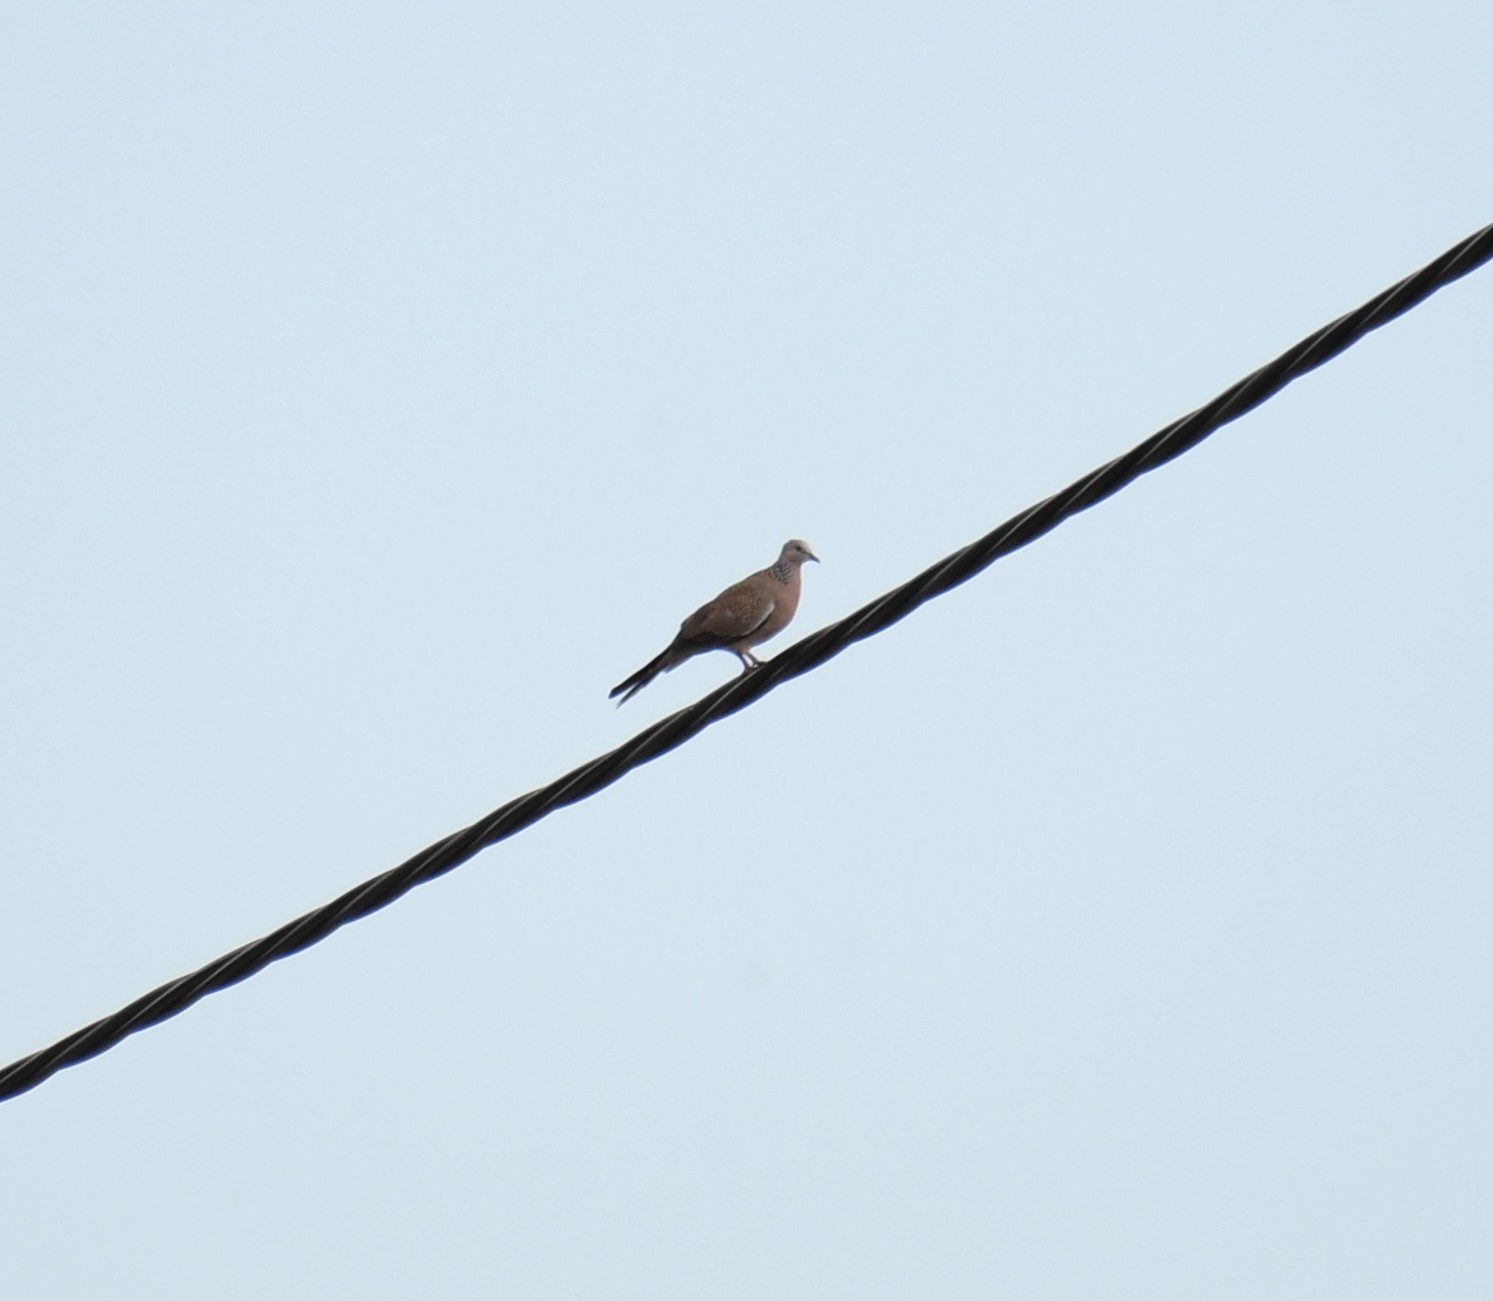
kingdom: Animalia
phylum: Chordata
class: Aves
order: Columbiformes
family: Columbidae
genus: Spilopelia
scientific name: Spilopelia chinensis
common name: Spotted dove
